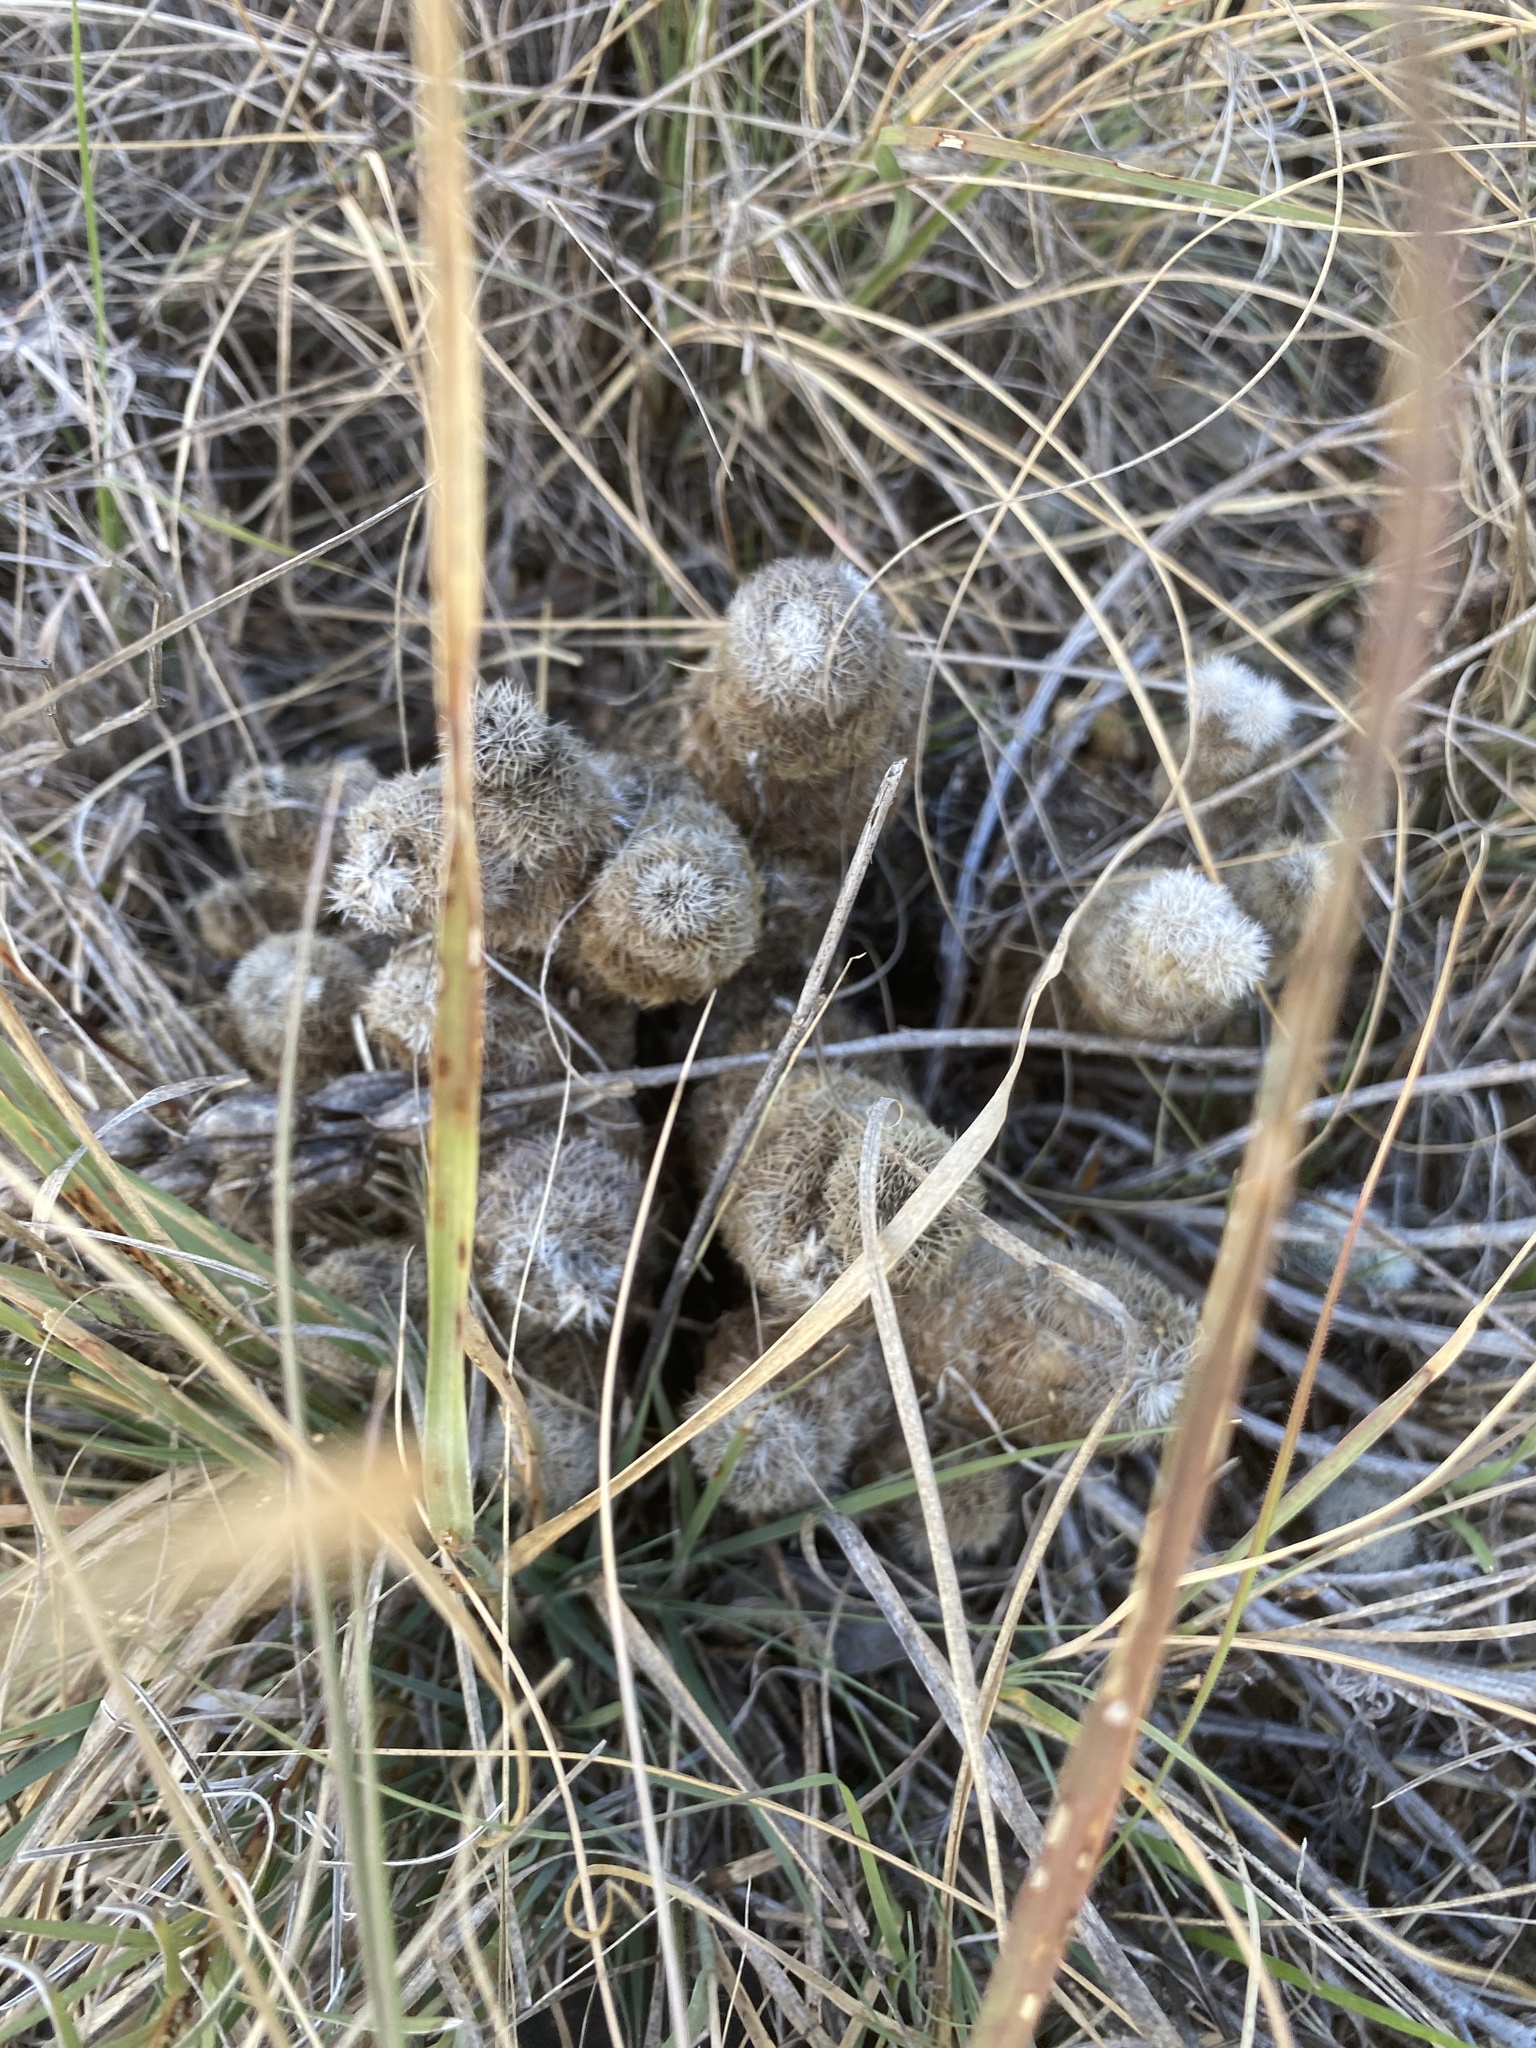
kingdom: Plantae
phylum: Tracheophyta
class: Magnoliopsida
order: Caryophyllales
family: Cactaceae
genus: Echinocereus
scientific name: Echinocereus reichenbachii
